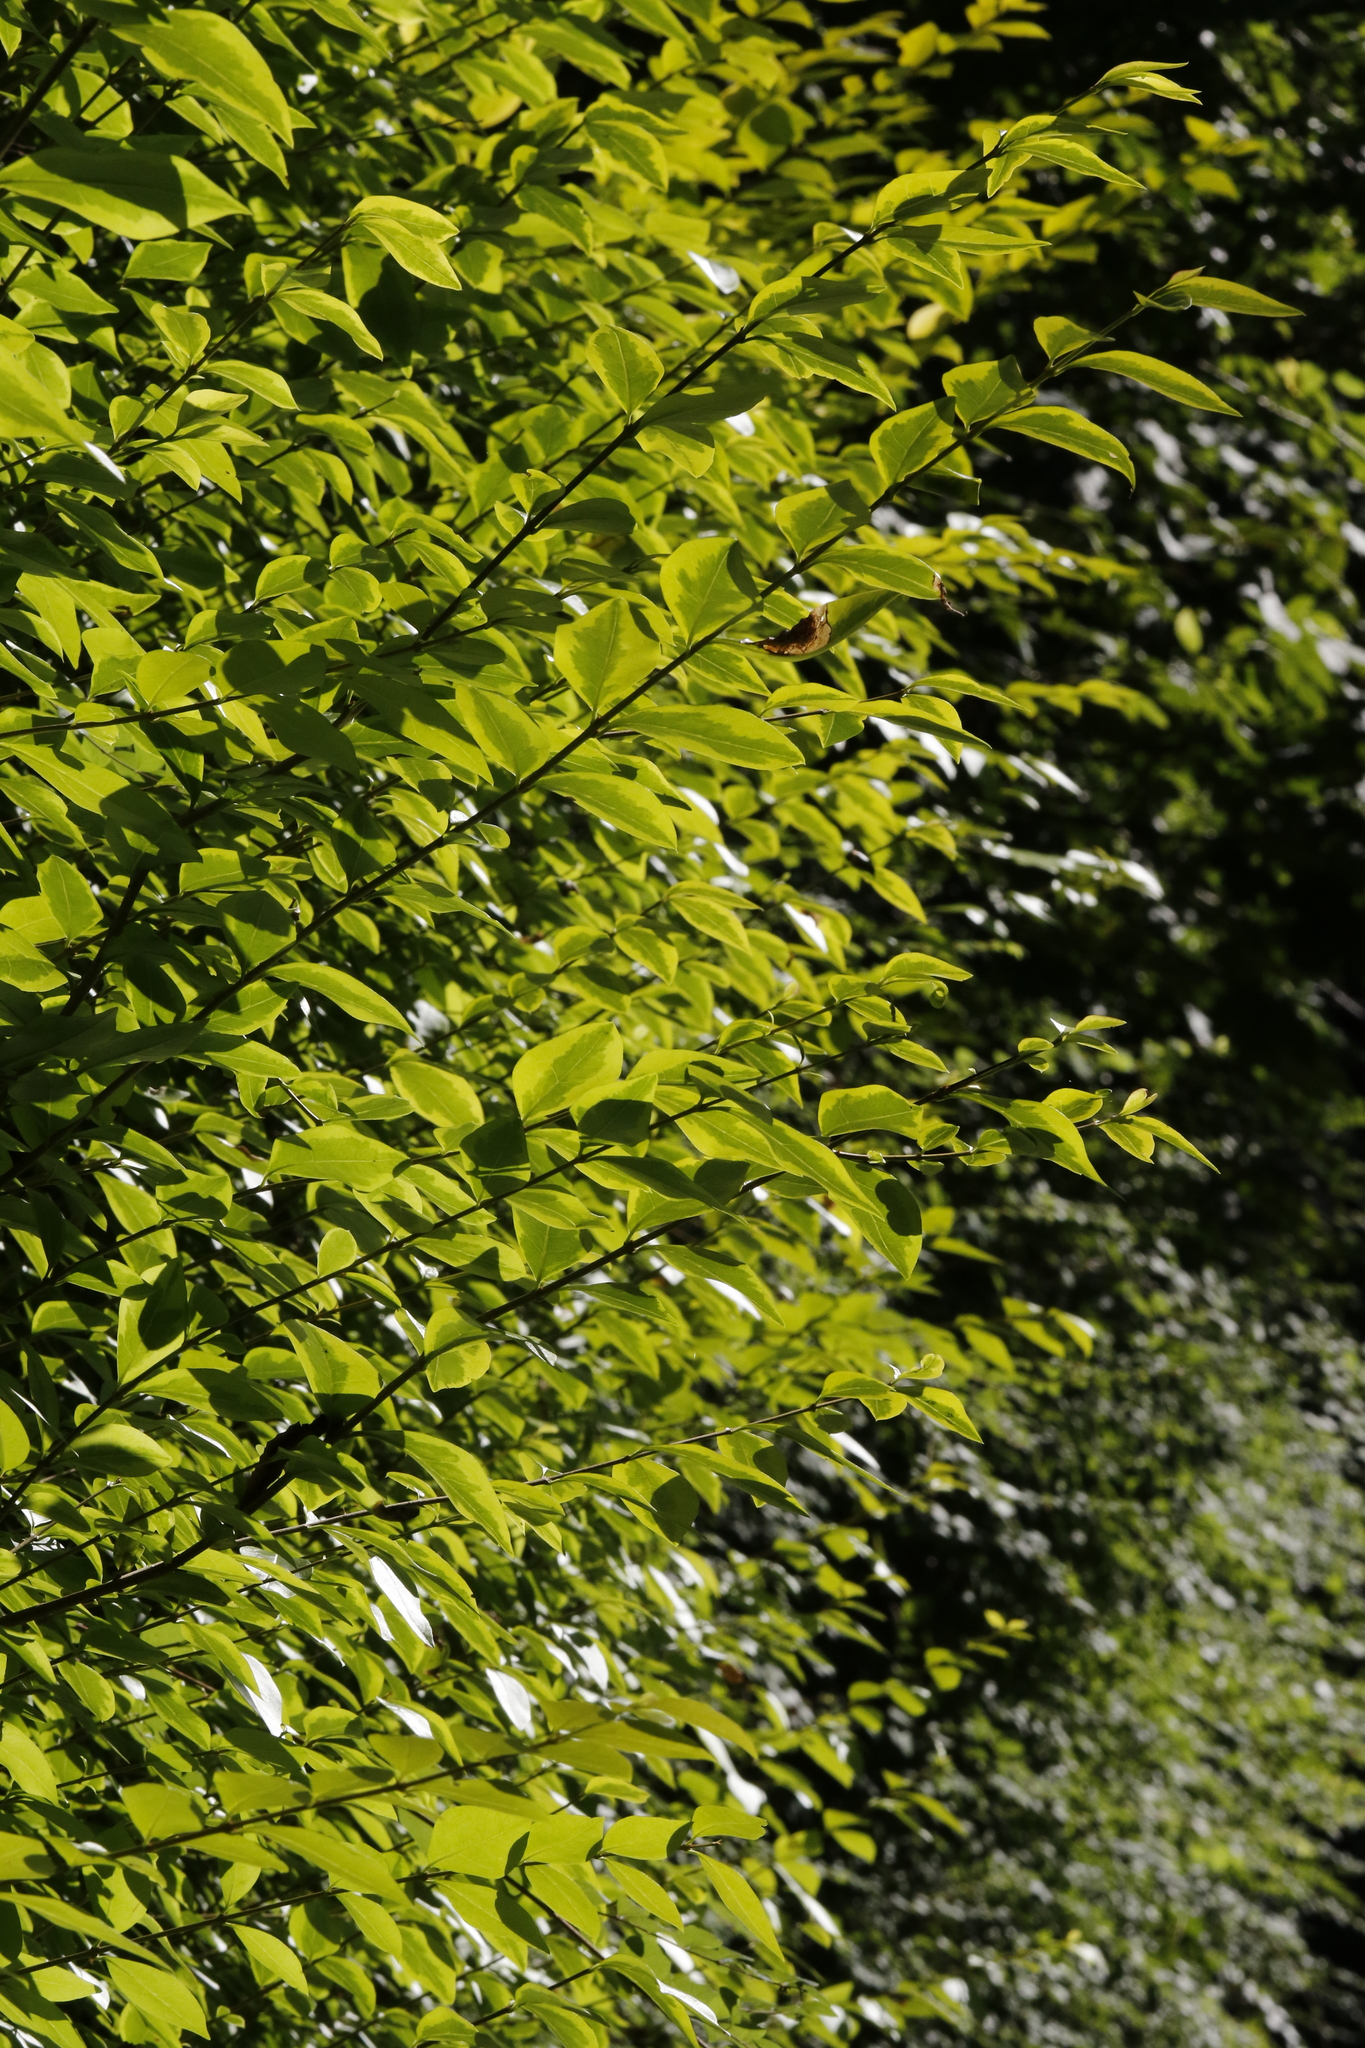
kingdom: Plantae
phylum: Tracheophyta
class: Magnoliopsida
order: Lamiales
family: Oleaceae
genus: Ligustrum
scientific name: Ligustrum ovalifolium
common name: California privet
